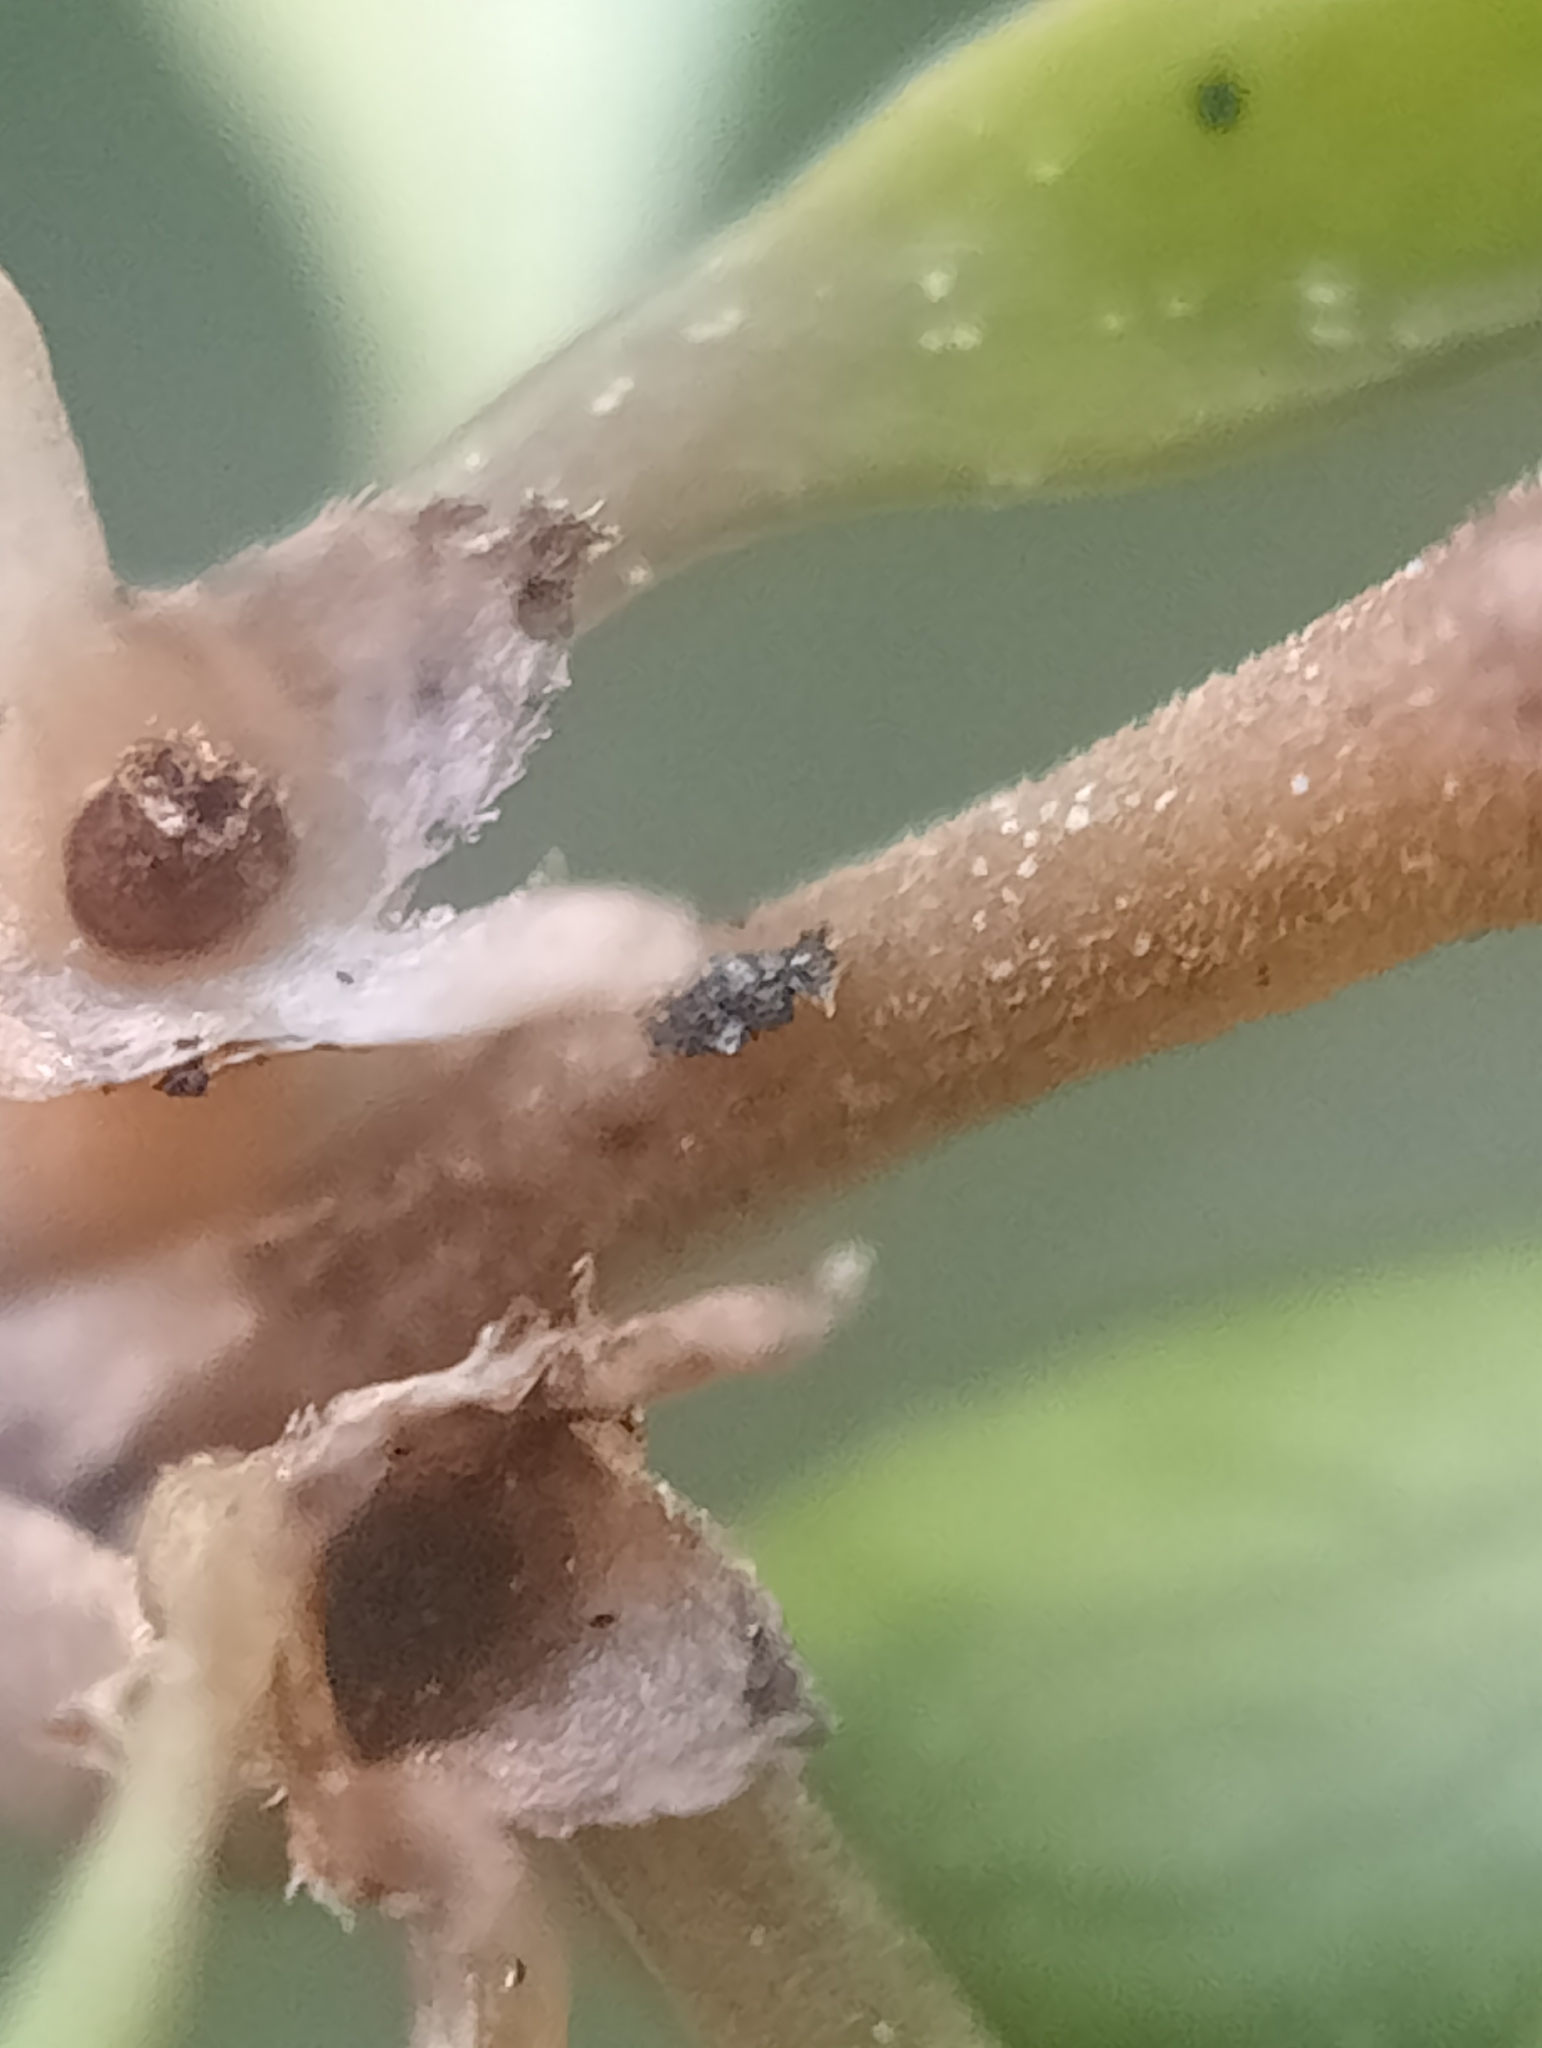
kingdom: Plantae
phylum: Tracheophyta
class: Magnoliopsida
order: Gentianales
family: Rubiaceae
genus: Coprosma
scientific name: Coprosma depressa
